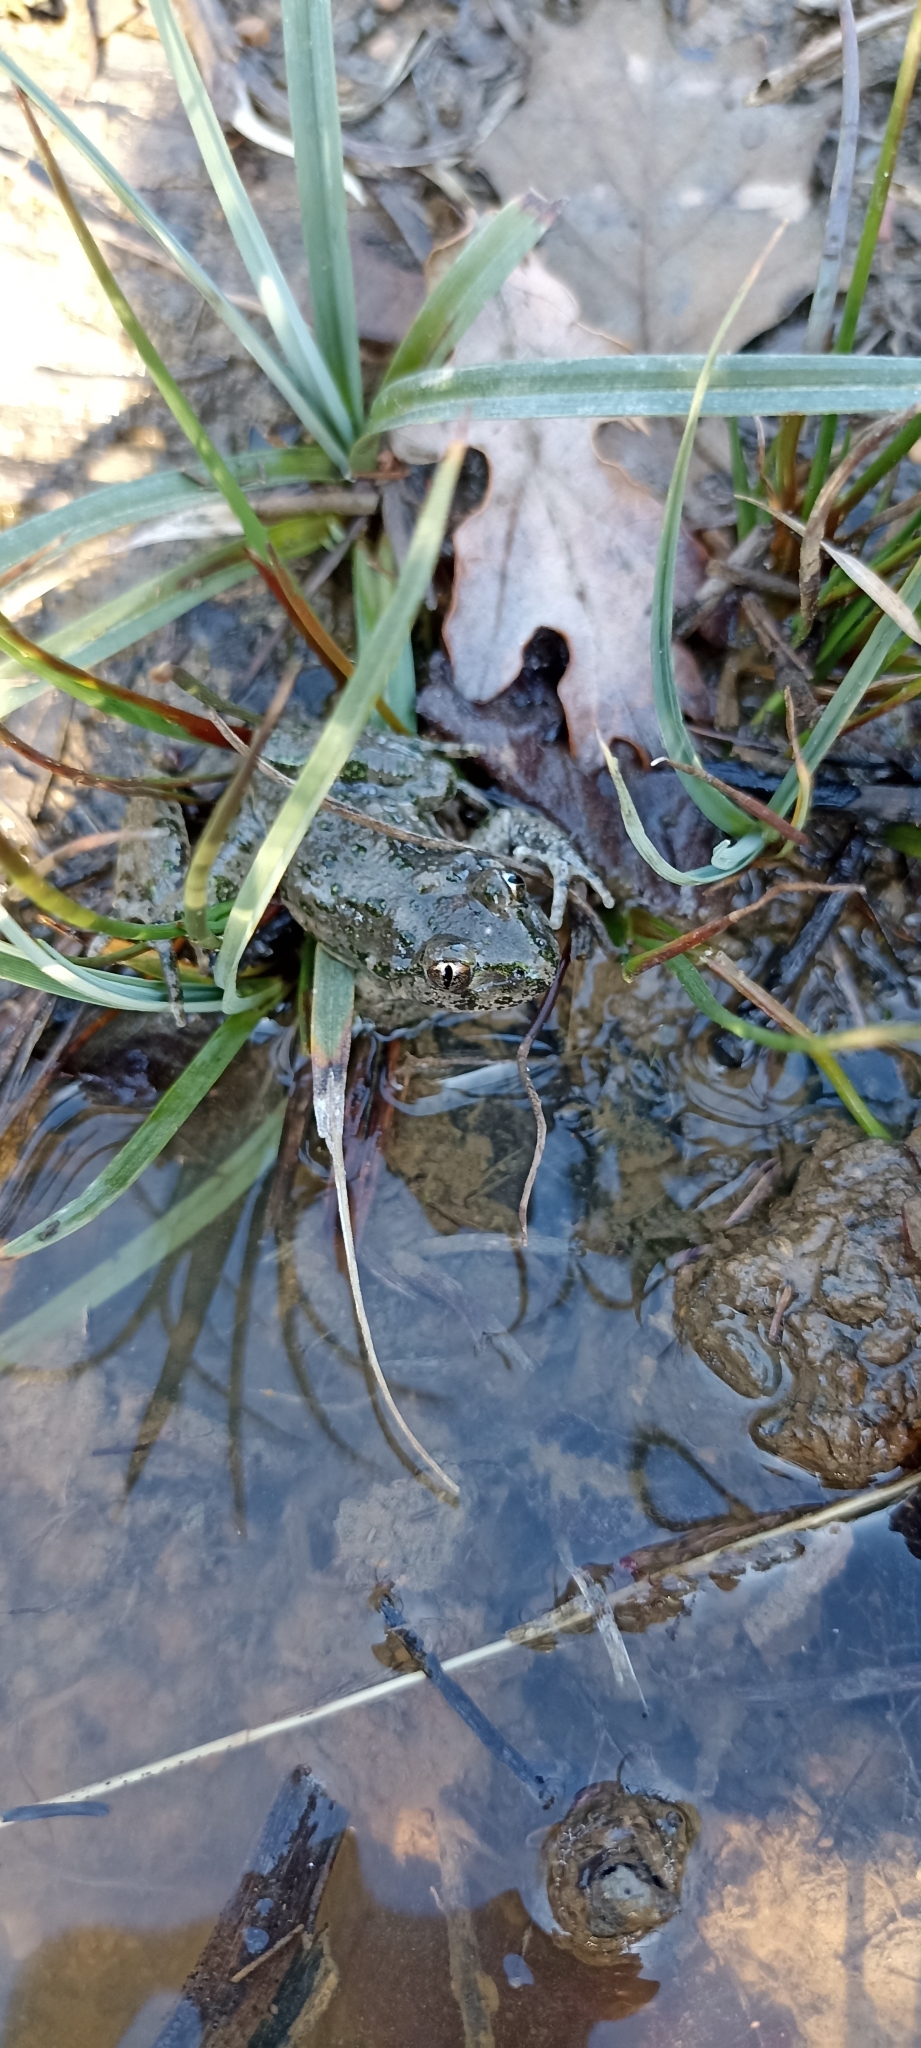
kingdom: Animalia
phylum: Chordata
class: Amphibia
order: Anura
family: Pelodytidae
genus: Pelodytes
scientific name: Pelodytes punctatus
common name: Parsley frog
